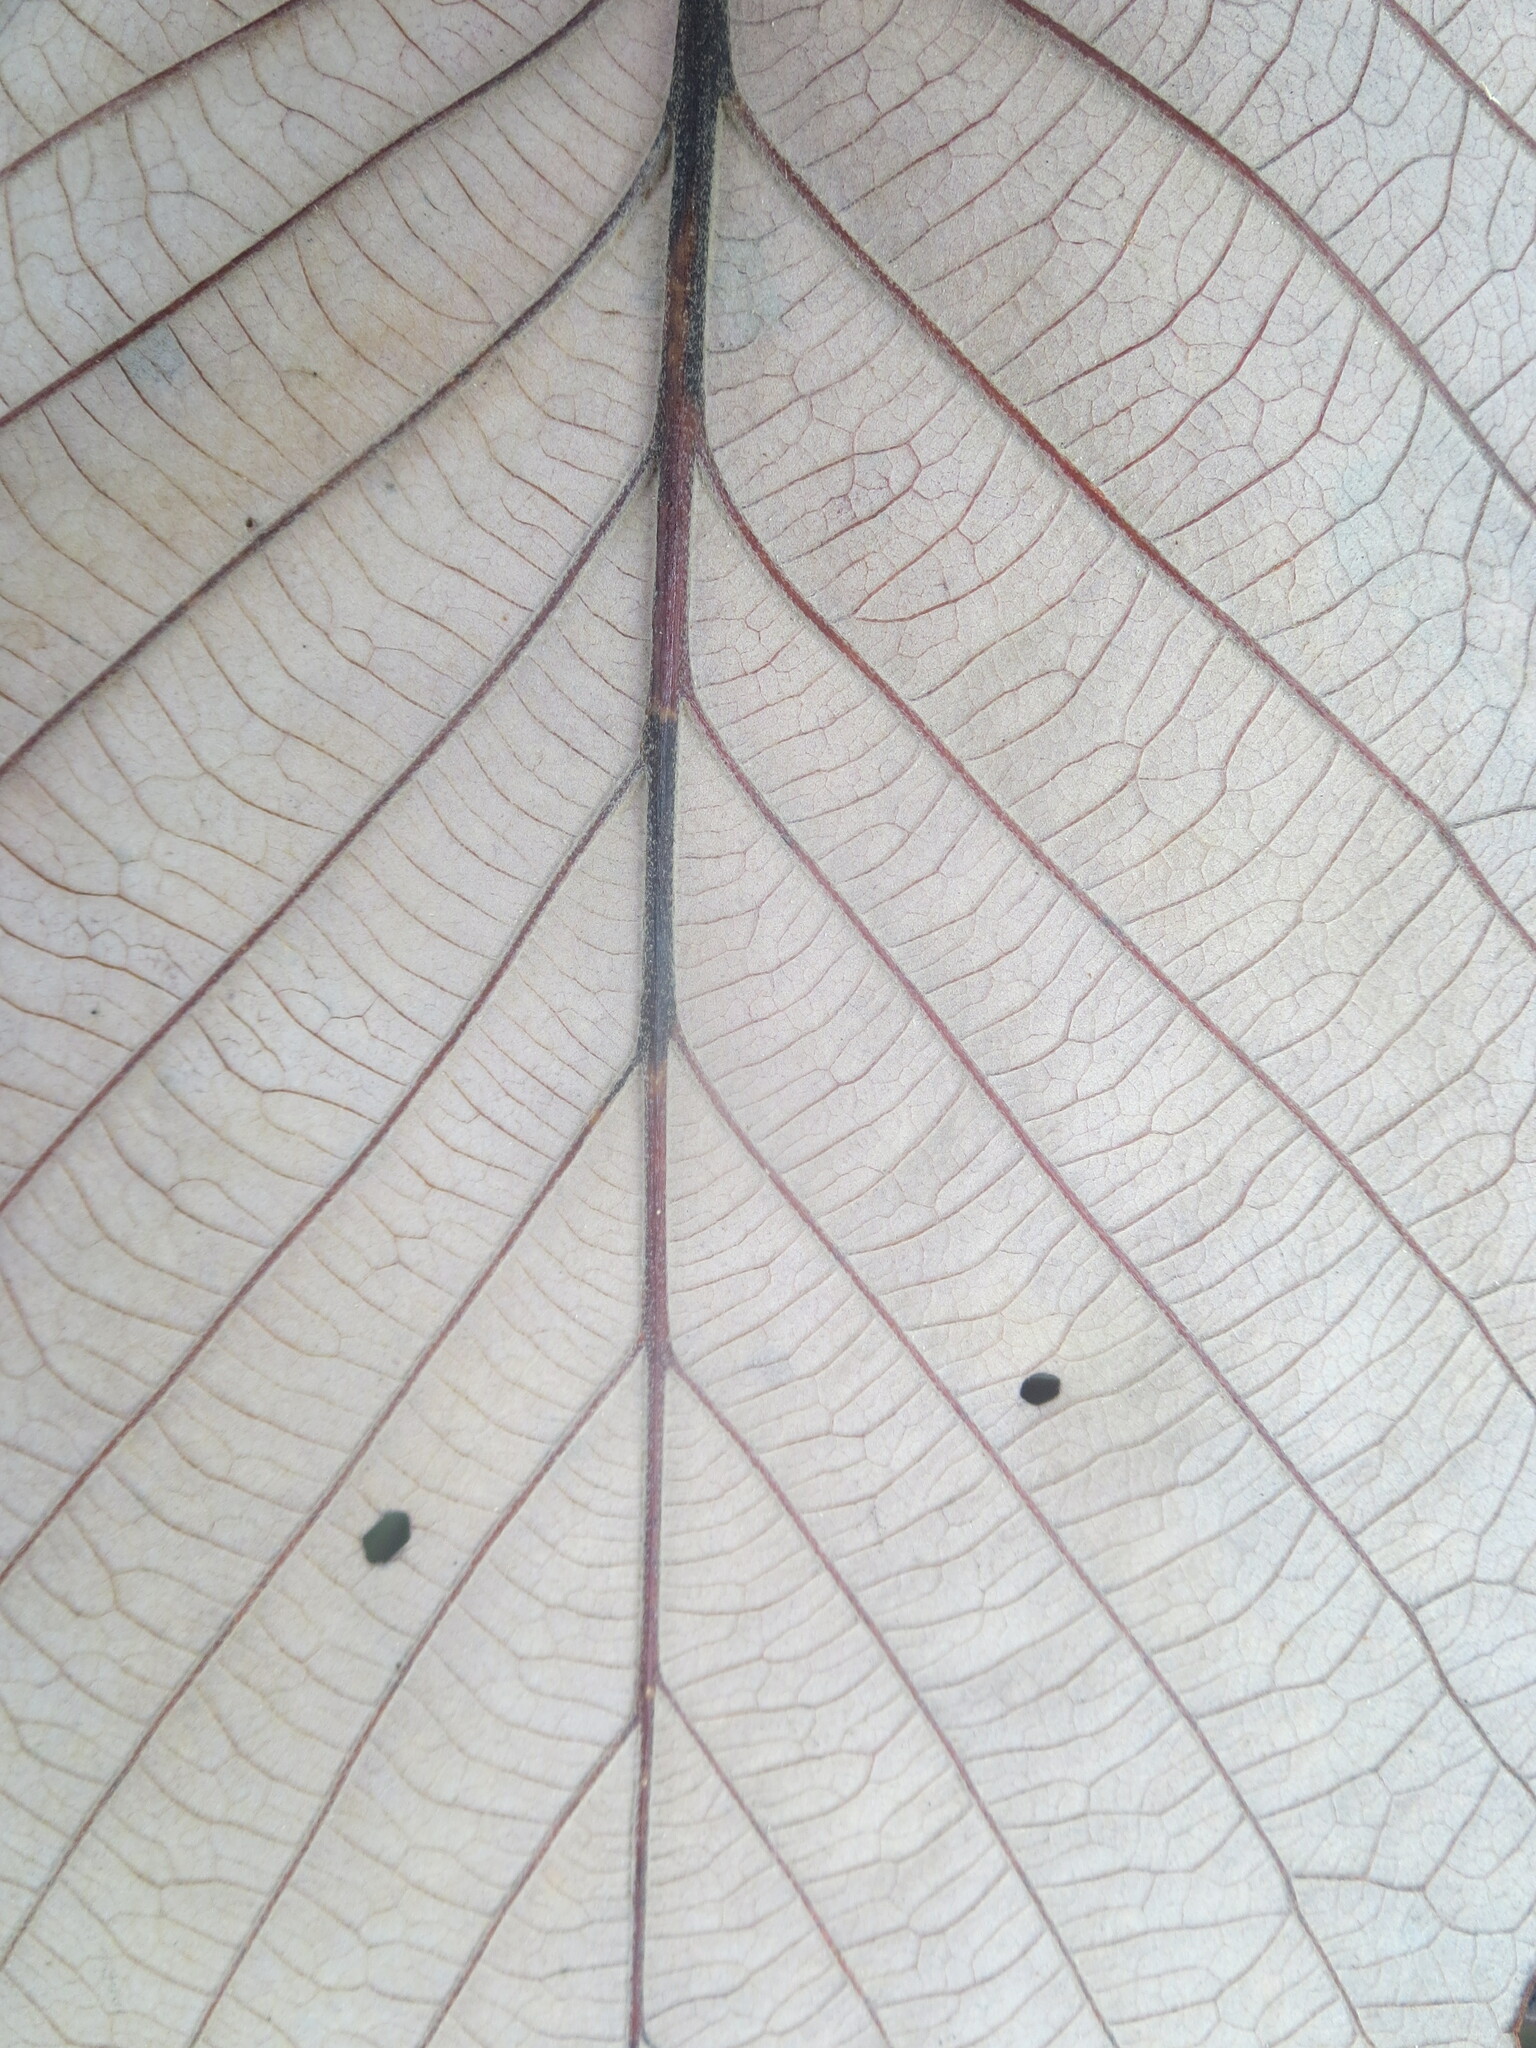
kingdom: Plantae
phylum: Tracheophyta
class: Magnoliopsida
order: Fagales
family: Fagaceae
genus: Quercus
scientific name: Quercus michauxii
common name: Swamp chestnut oak
